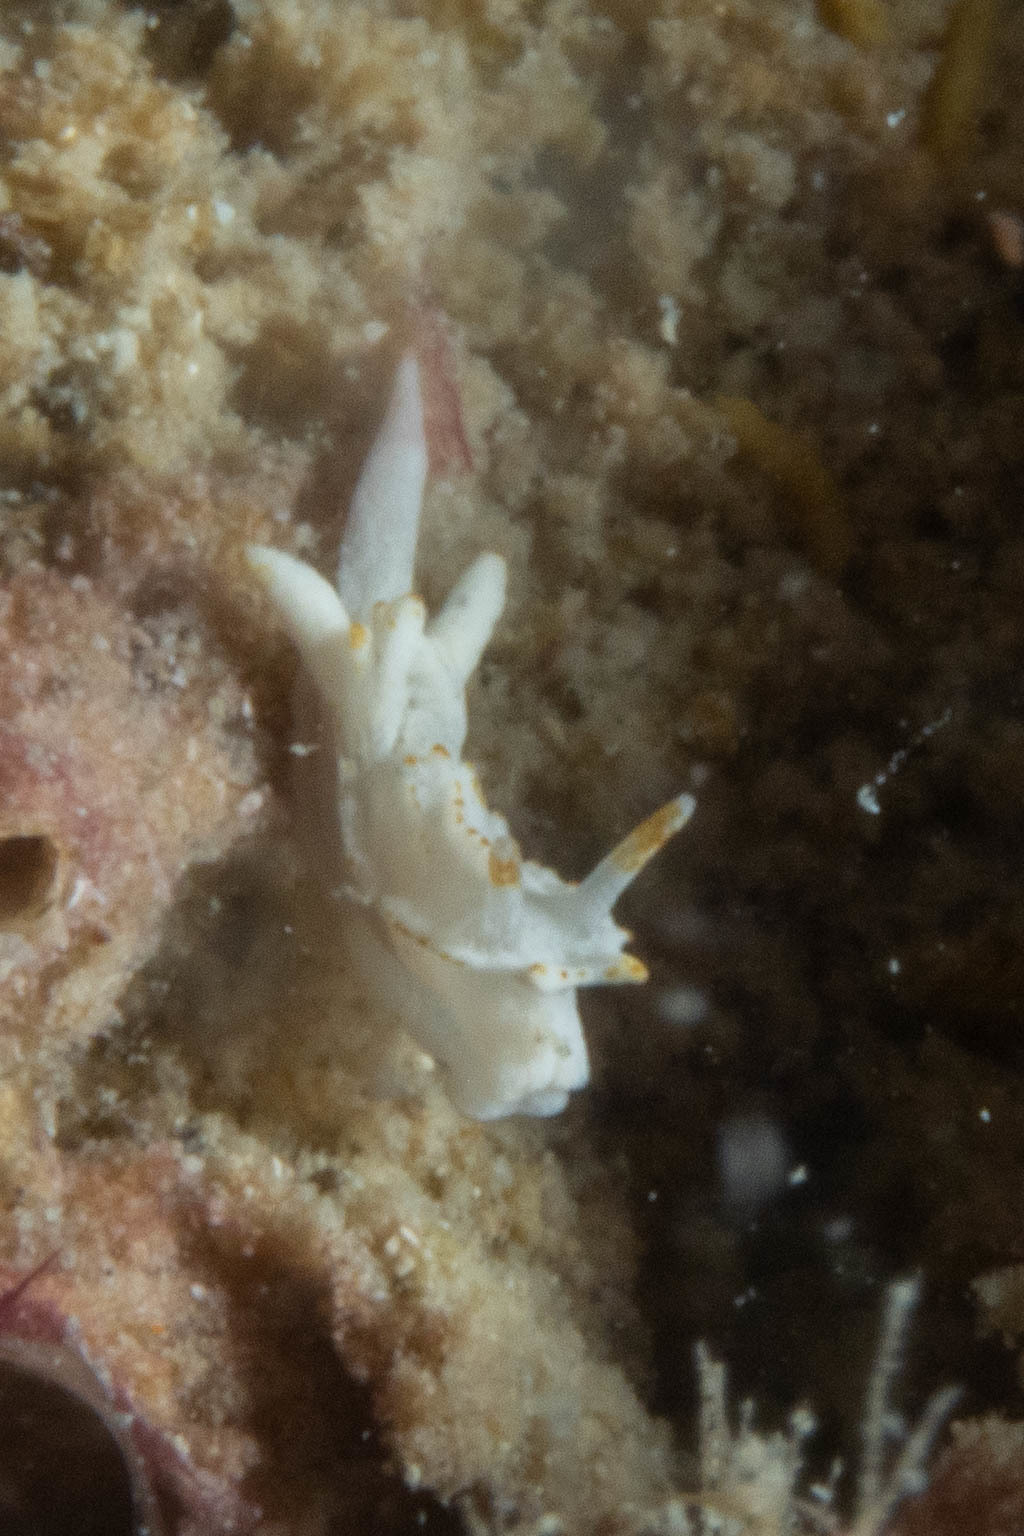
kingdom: Animalia
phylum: Mollusca
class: Gastropoda
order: Nudibranchia
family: Goniodorididae
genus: Goniodoridella
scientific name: Goniodoridella savignyi
